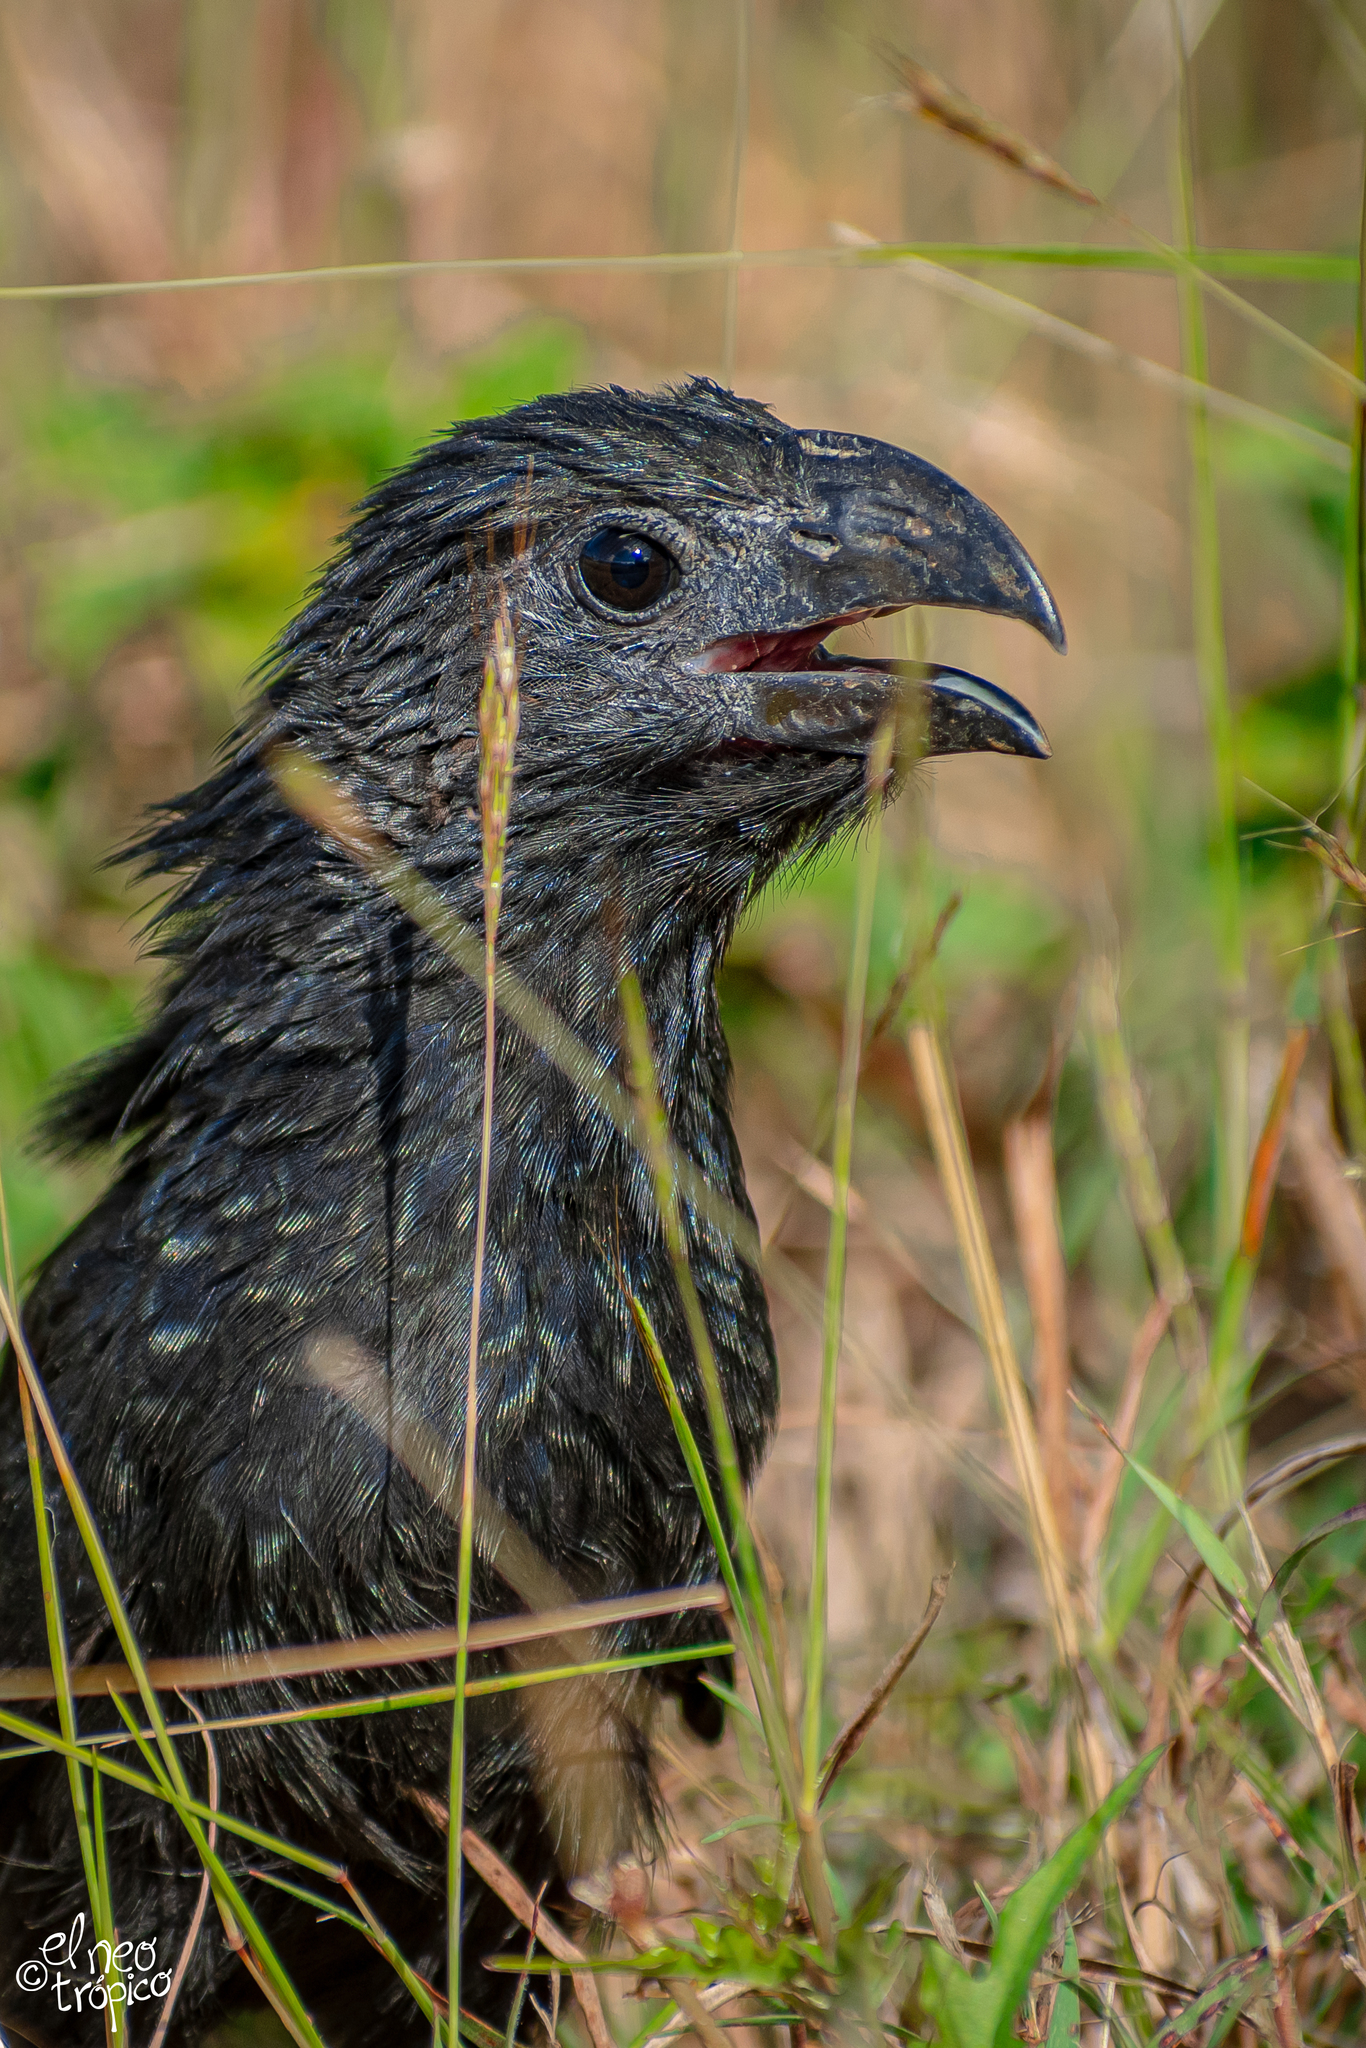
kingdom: Animalia
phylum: Chordata
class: Aves
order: Cuculiformes
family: Cuculidae
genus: Crotophaga
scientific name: Crotophaga sulcirostris
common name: Groove-billed ani
